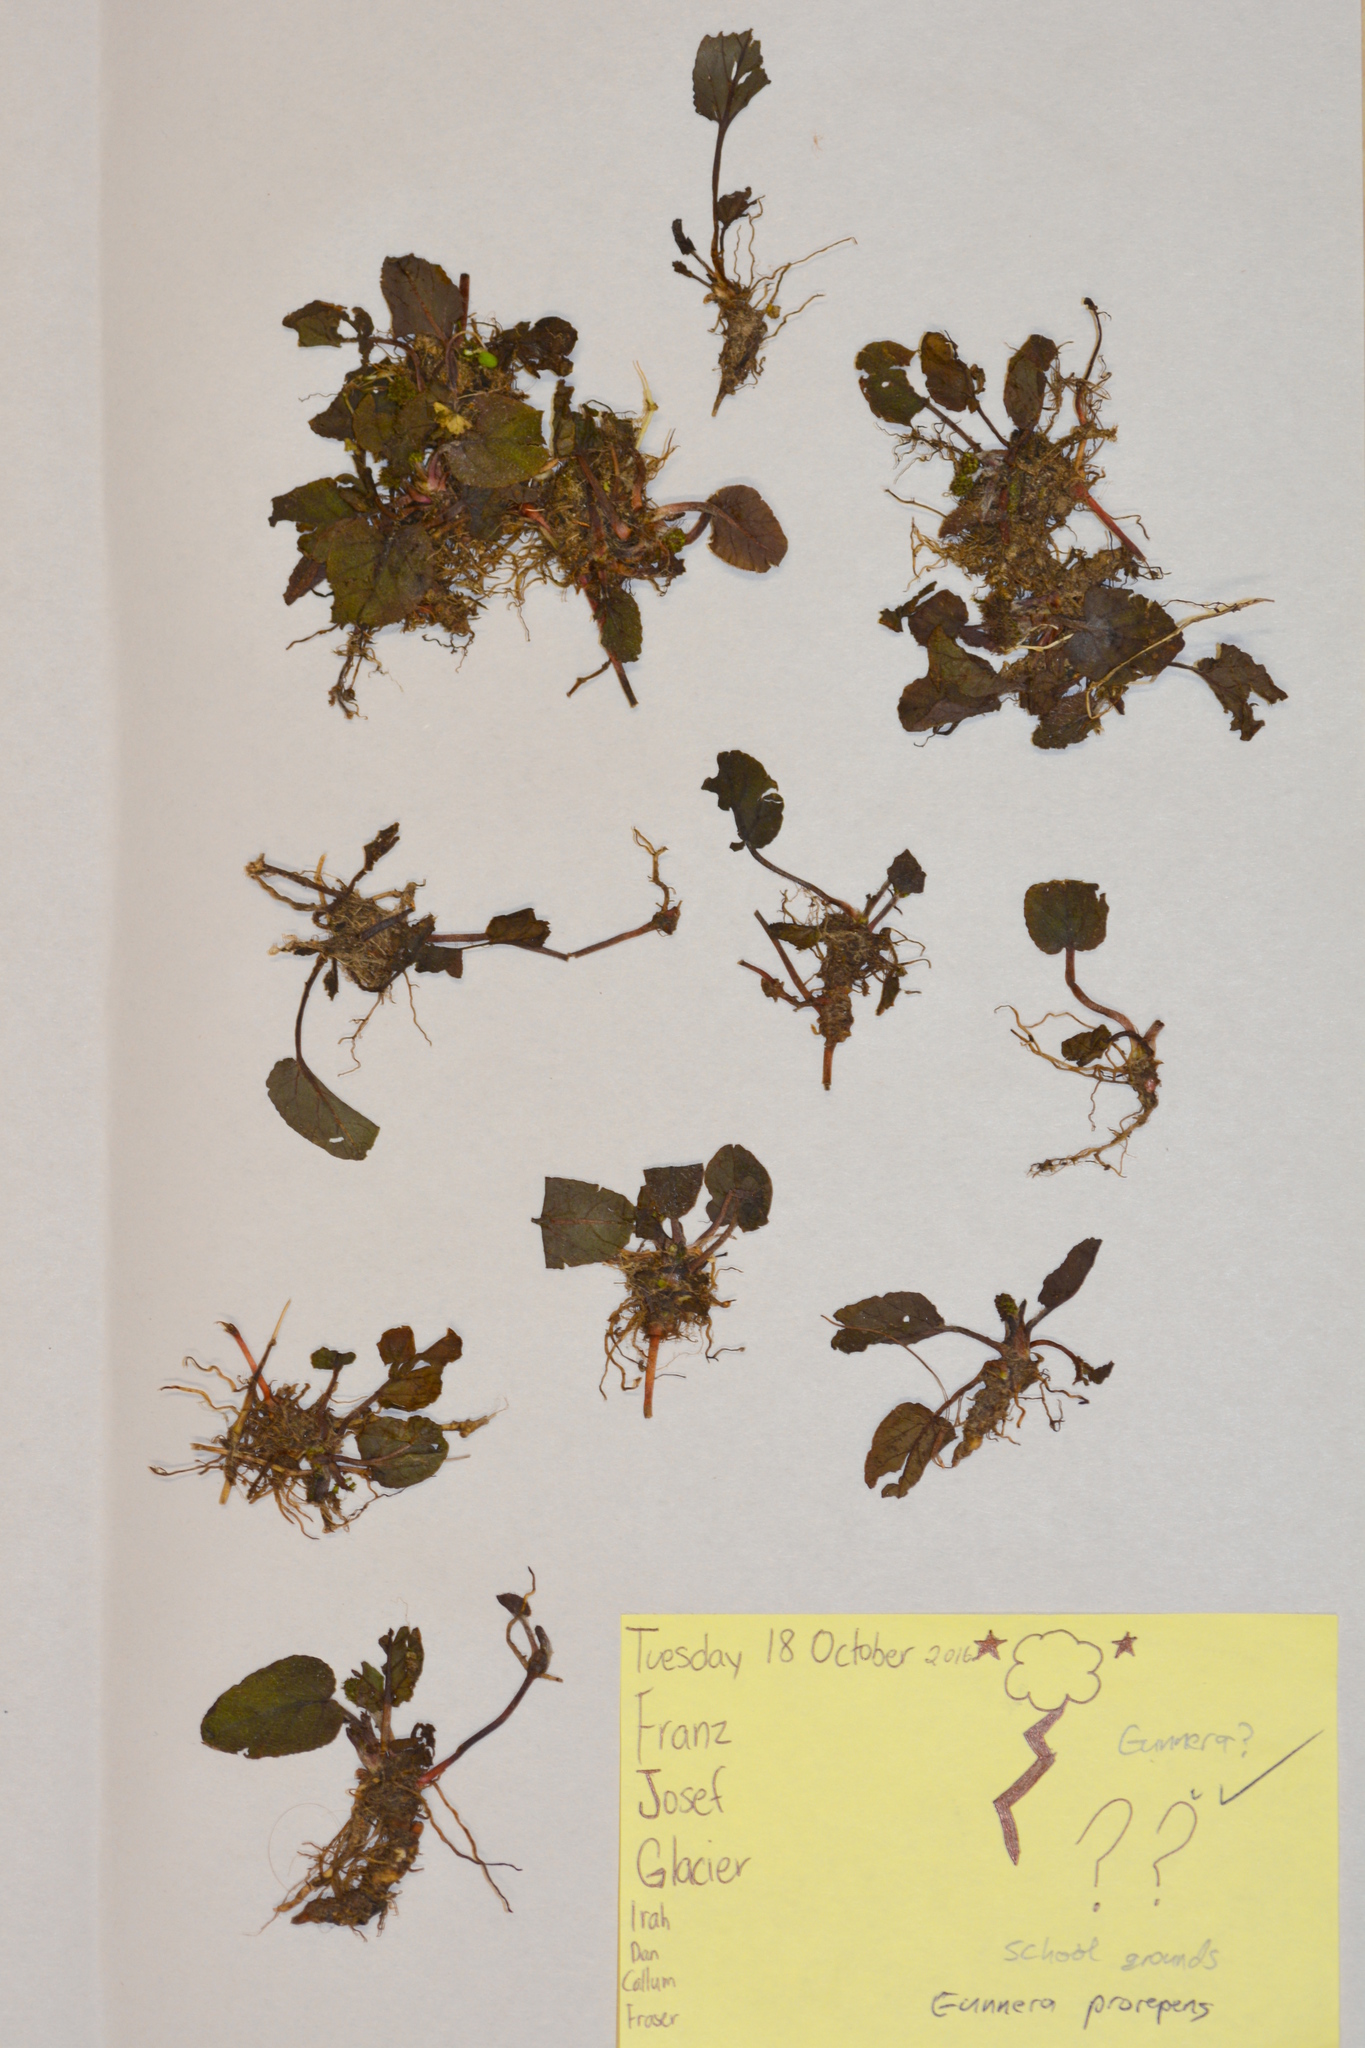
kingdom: Plantae
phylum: Tracheophyta
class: Magnoliopsida
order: Gunnerales
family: Gunneraceae
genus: Gunnera
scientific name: Gunnera prorepens
